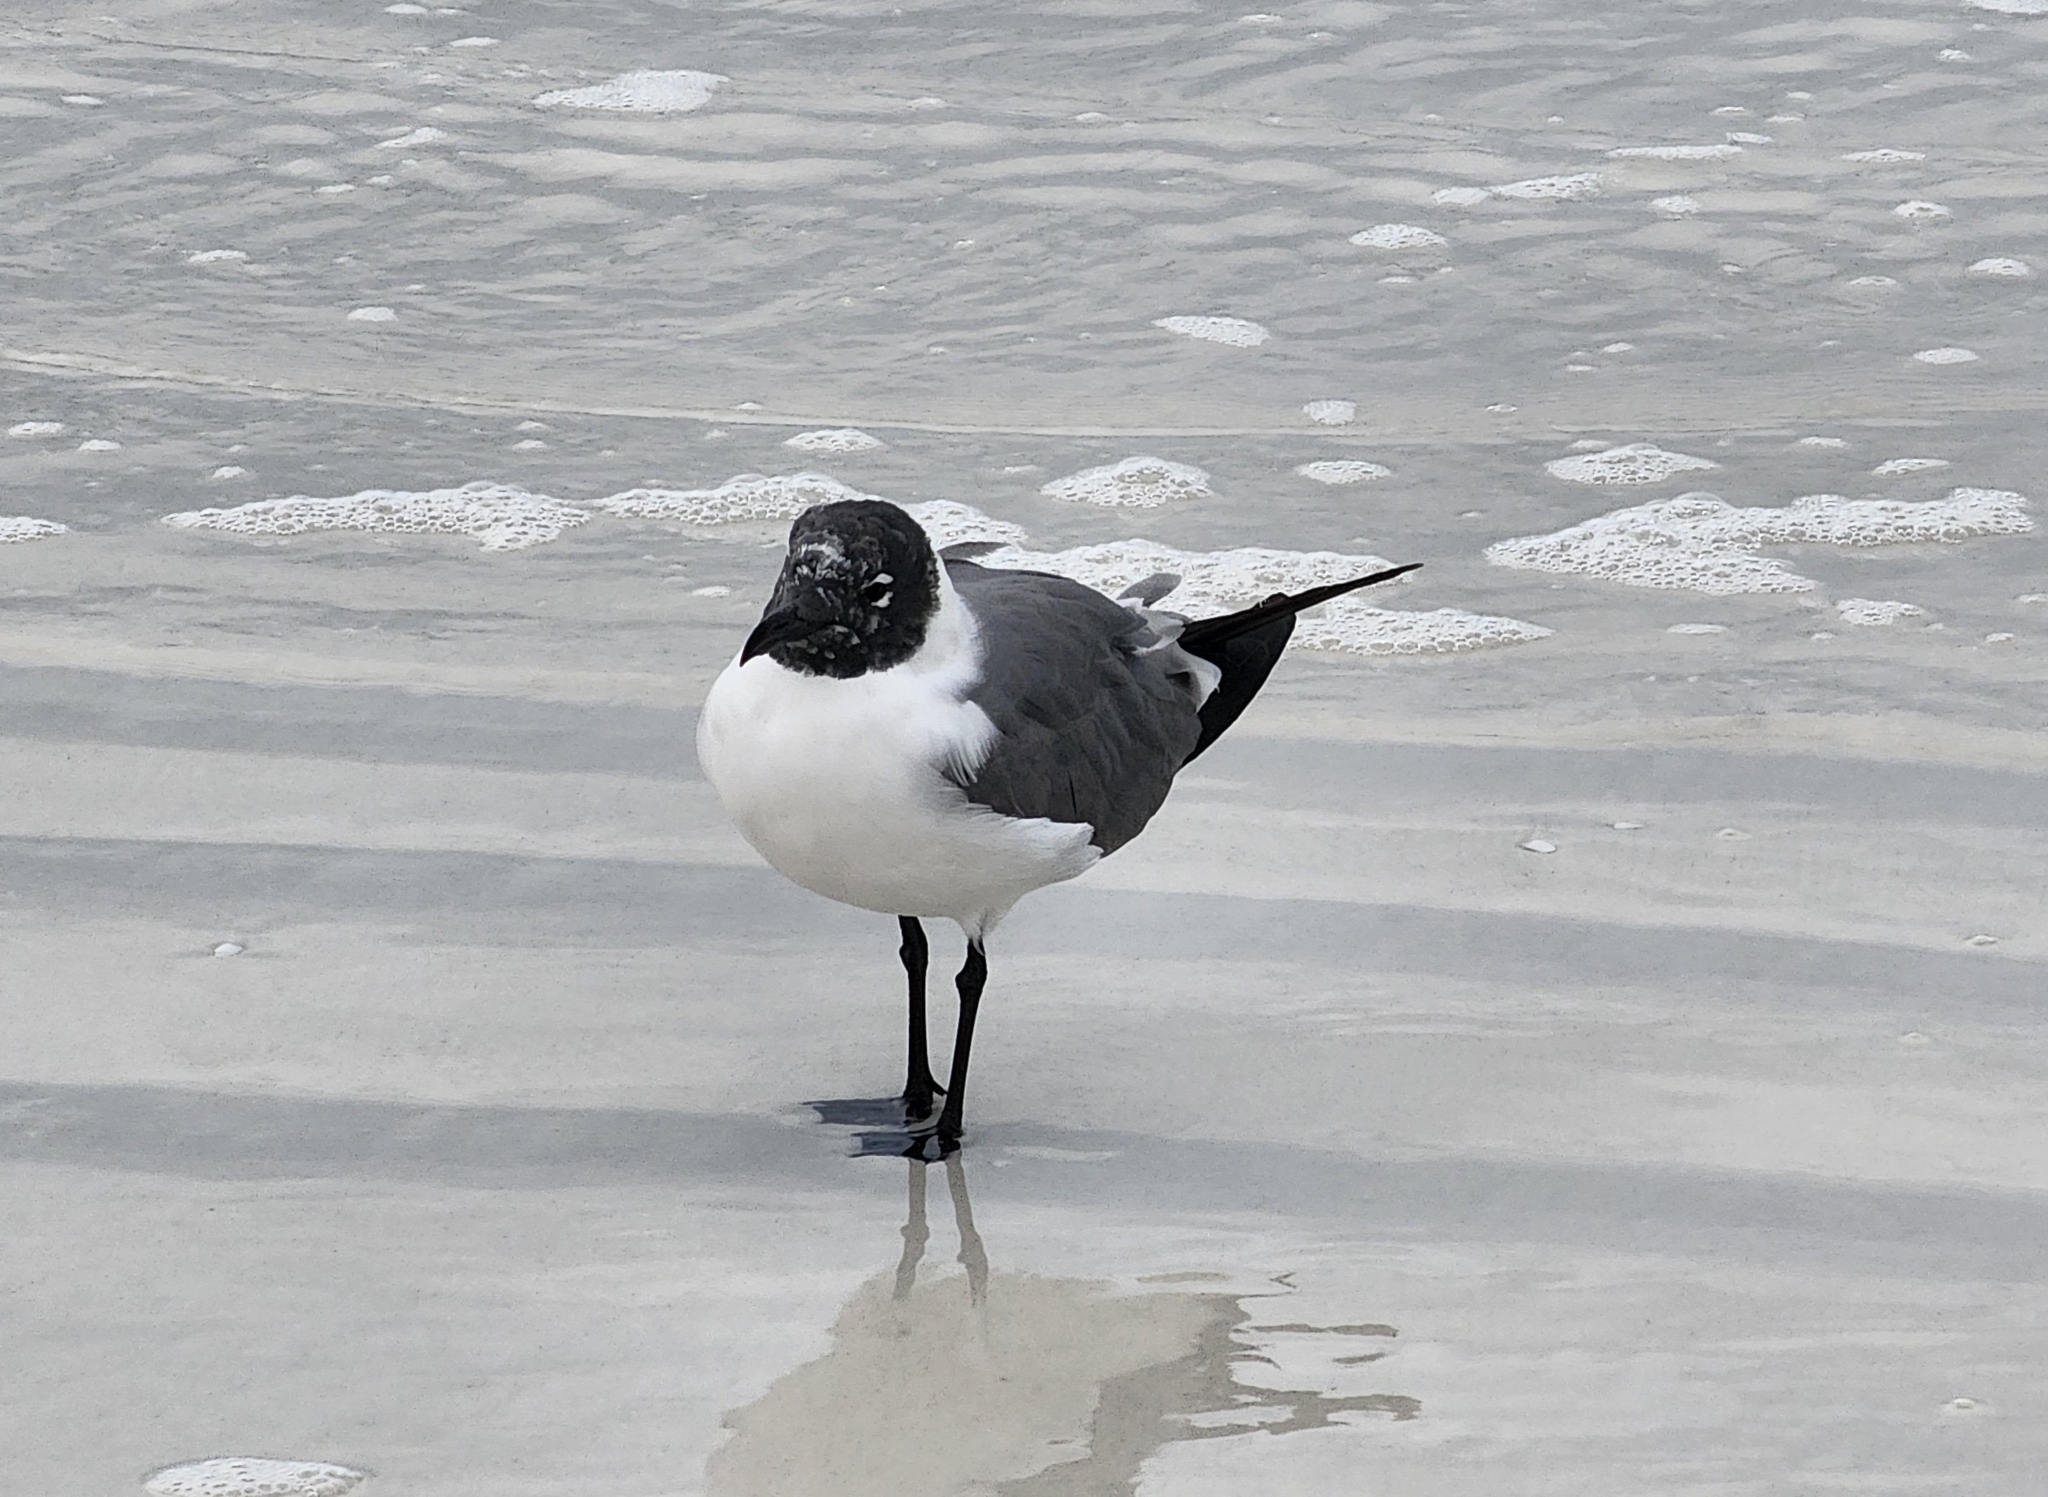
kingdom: Animalia
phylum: Chordata
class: Aves
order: Charadriiformes
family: Laridae
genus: Leucophaeus
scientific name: Leucophaeus atricilla
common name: Laughing gull
